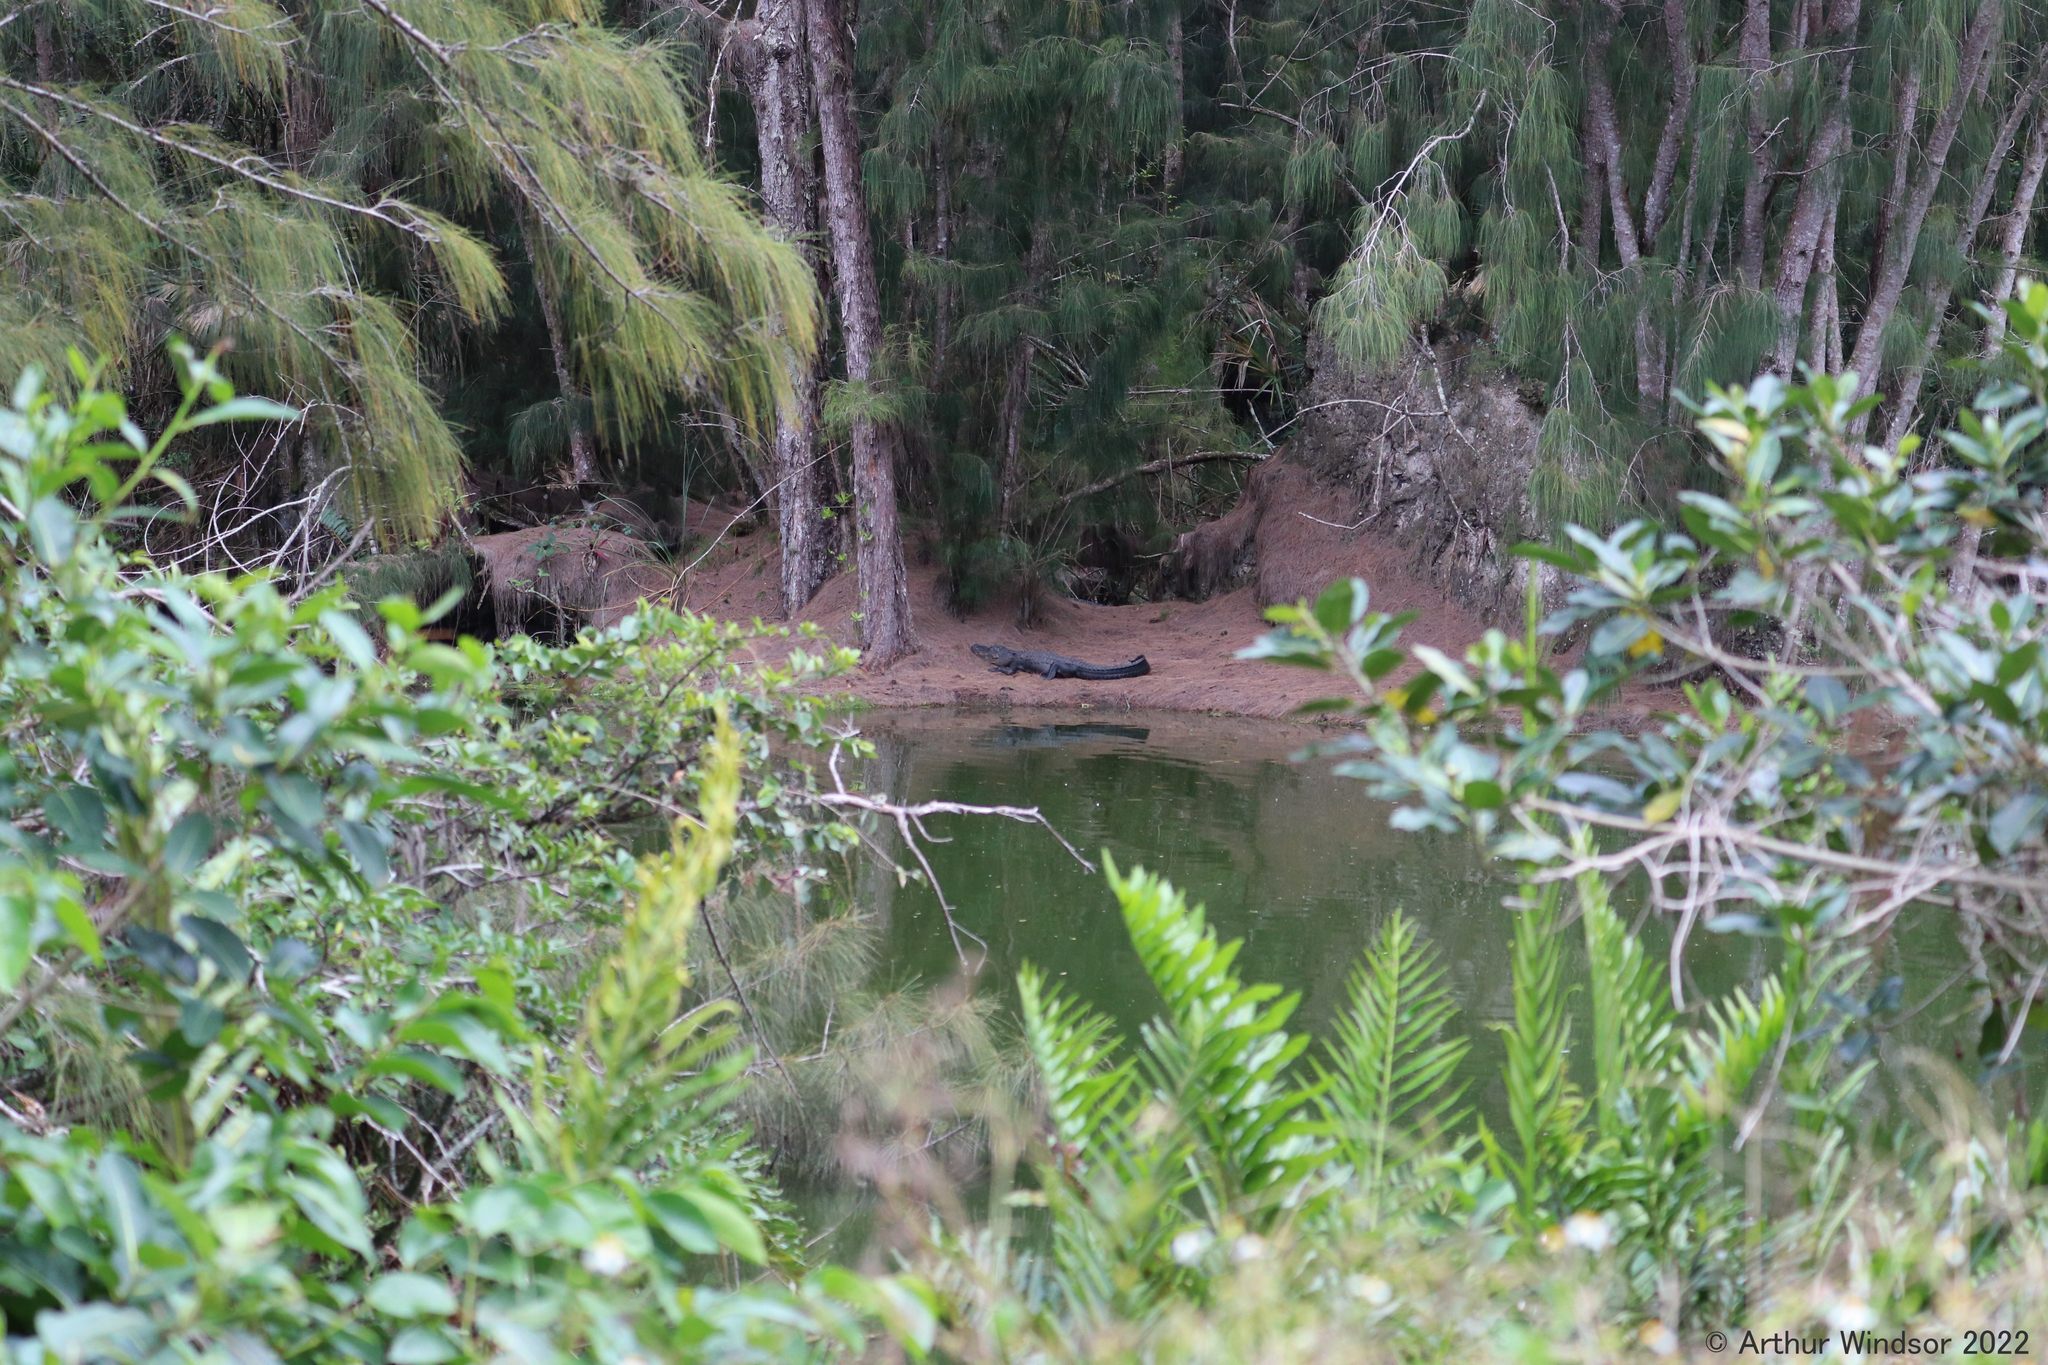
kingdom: Animalia
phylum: Chordata
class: Crocodylia
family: Alligatoridae
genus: Alligator
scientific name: Alligator mississippiensis
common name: American alligator
